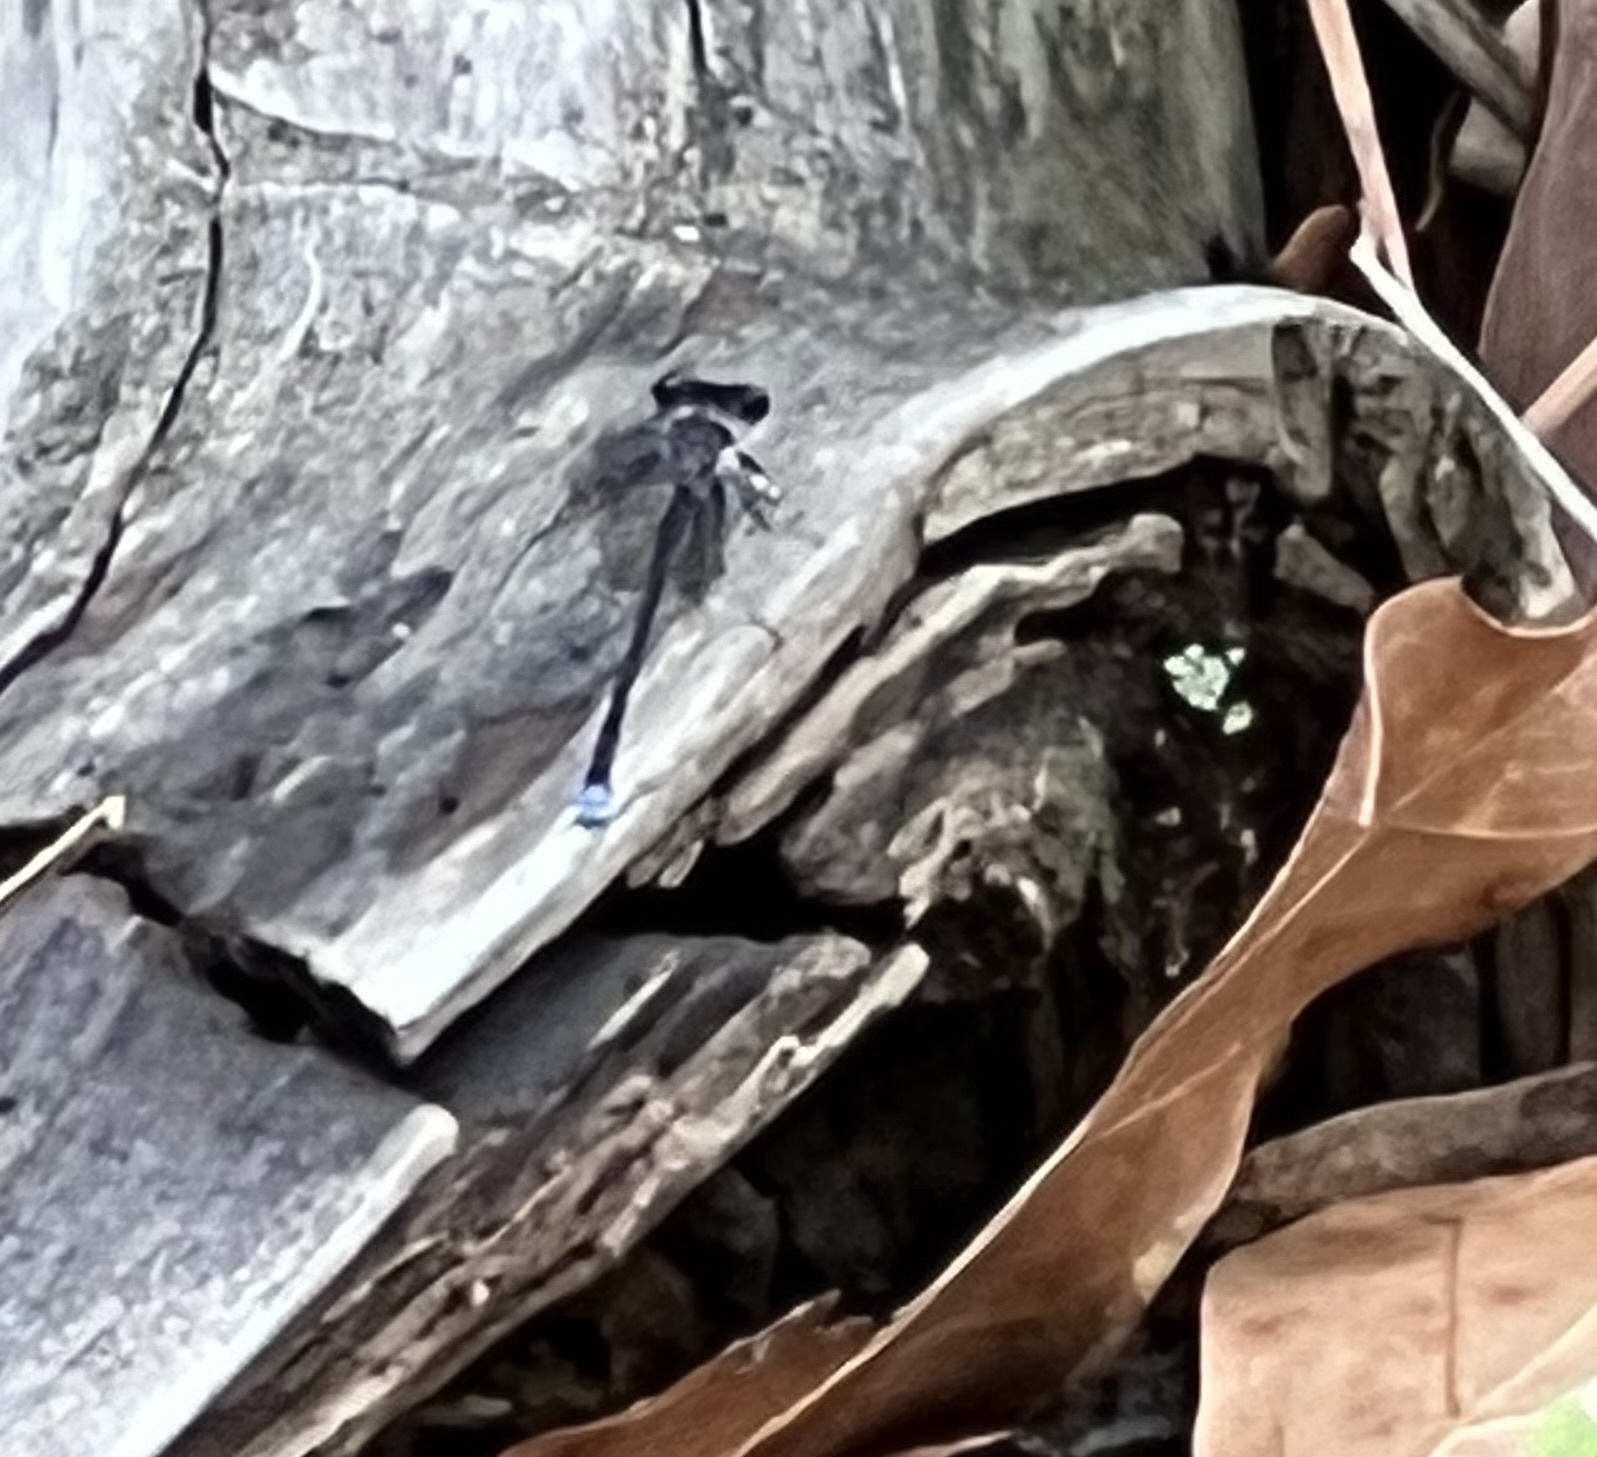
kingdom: Animalia
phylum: Arthropoda
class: Insecta
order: Odonata
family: Coenagrionidae
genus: Argia
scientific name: Argia tibialis
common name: Blue-tipped dancer
